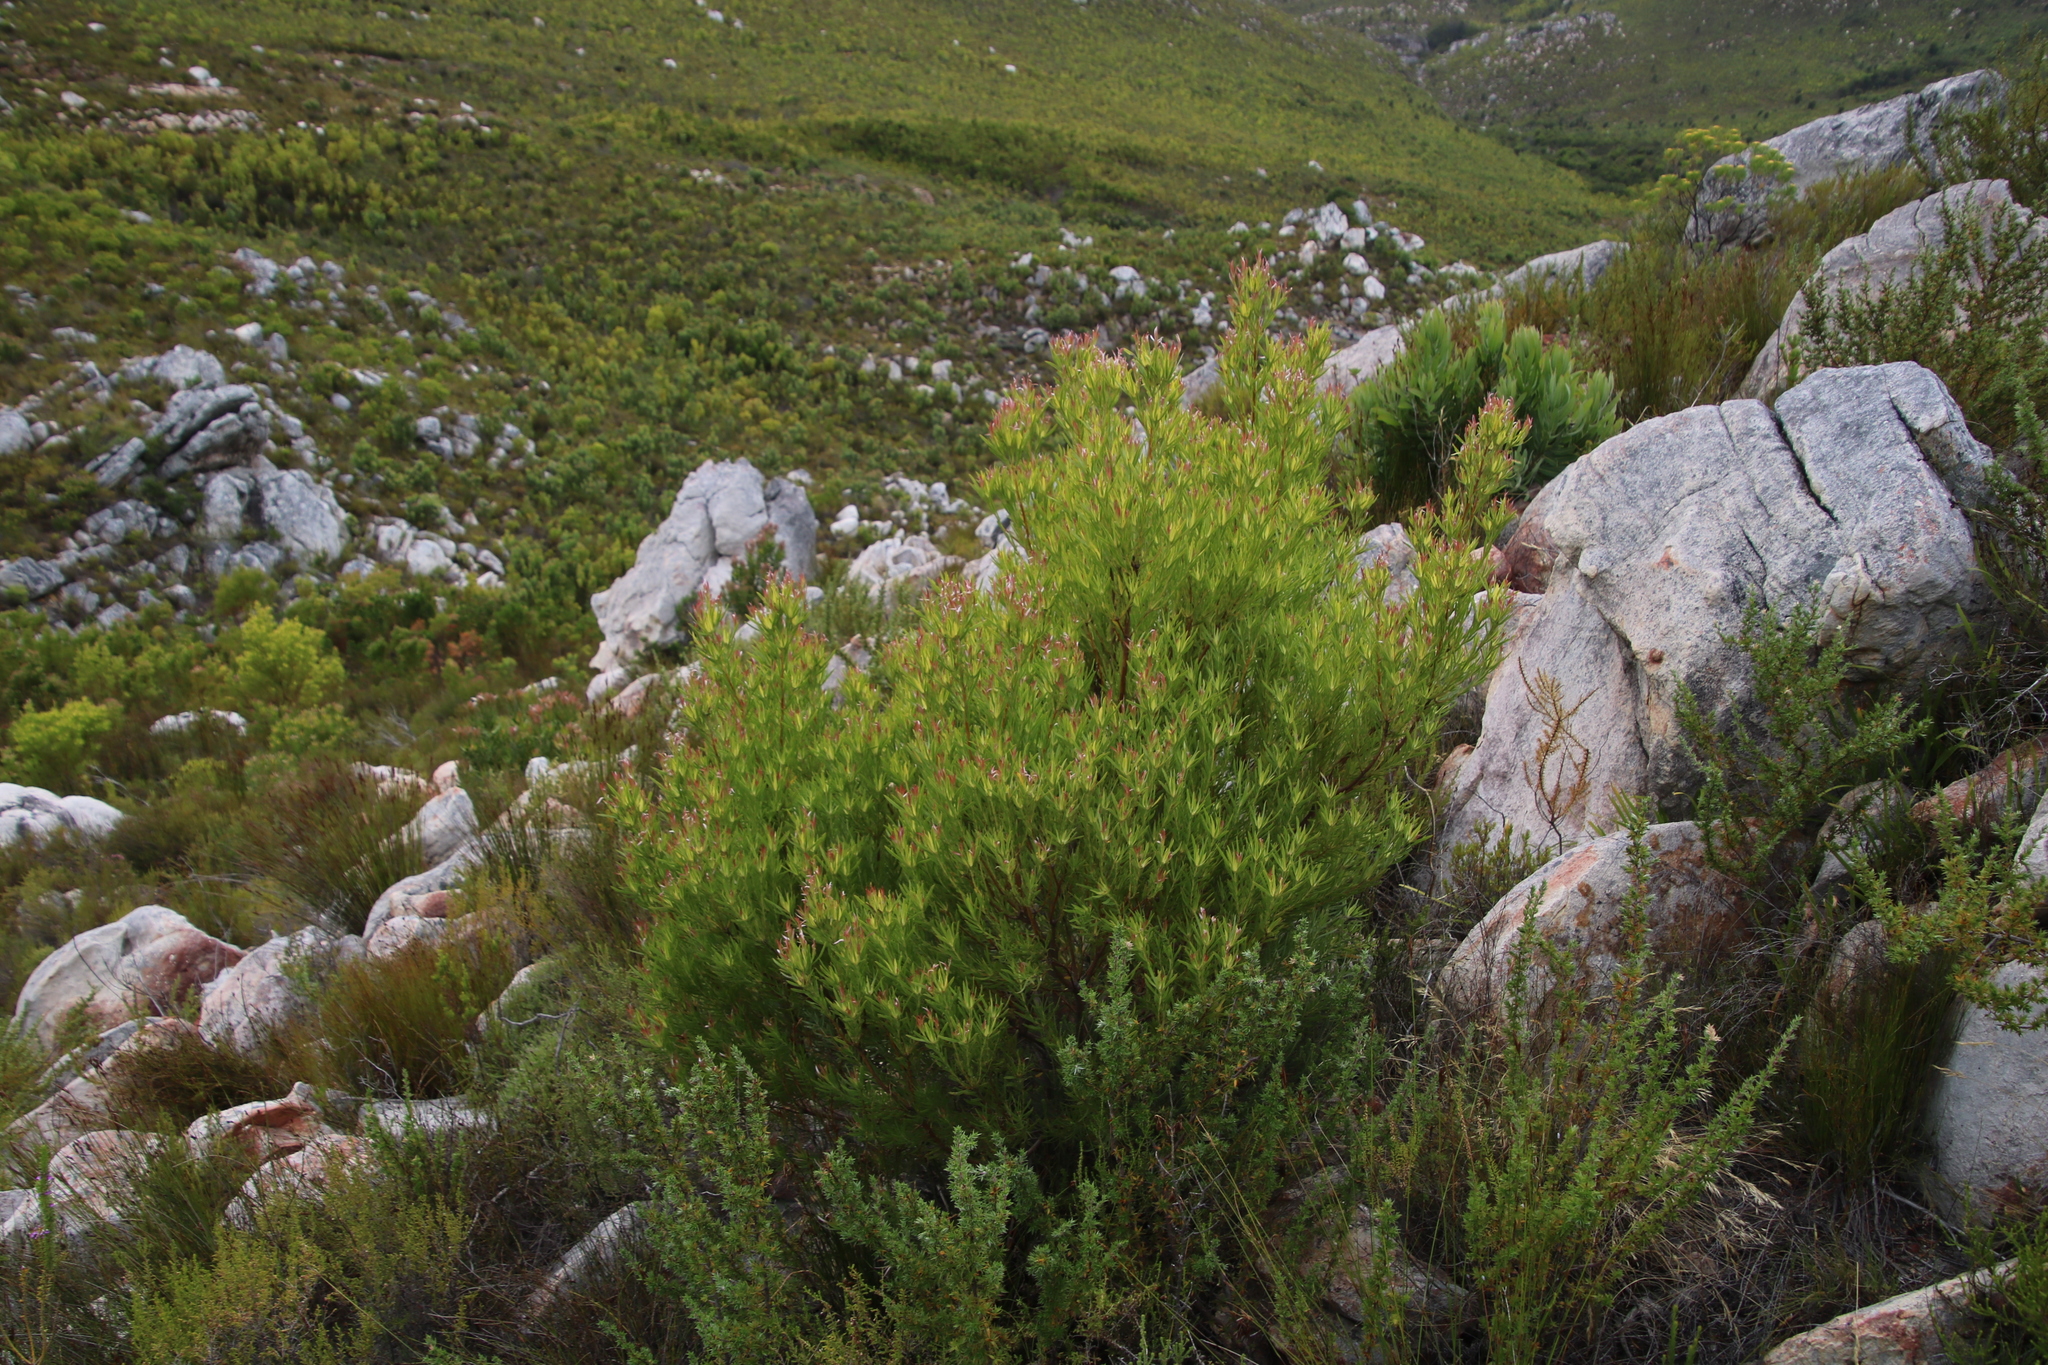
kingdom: Plantae
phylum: Tracheophyta
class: Magnoliopsida
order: Proteales
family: Proteaceae
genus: Leucadendron
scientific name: Leucadendron xanthoconus
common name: Sickle-leaf conebush
